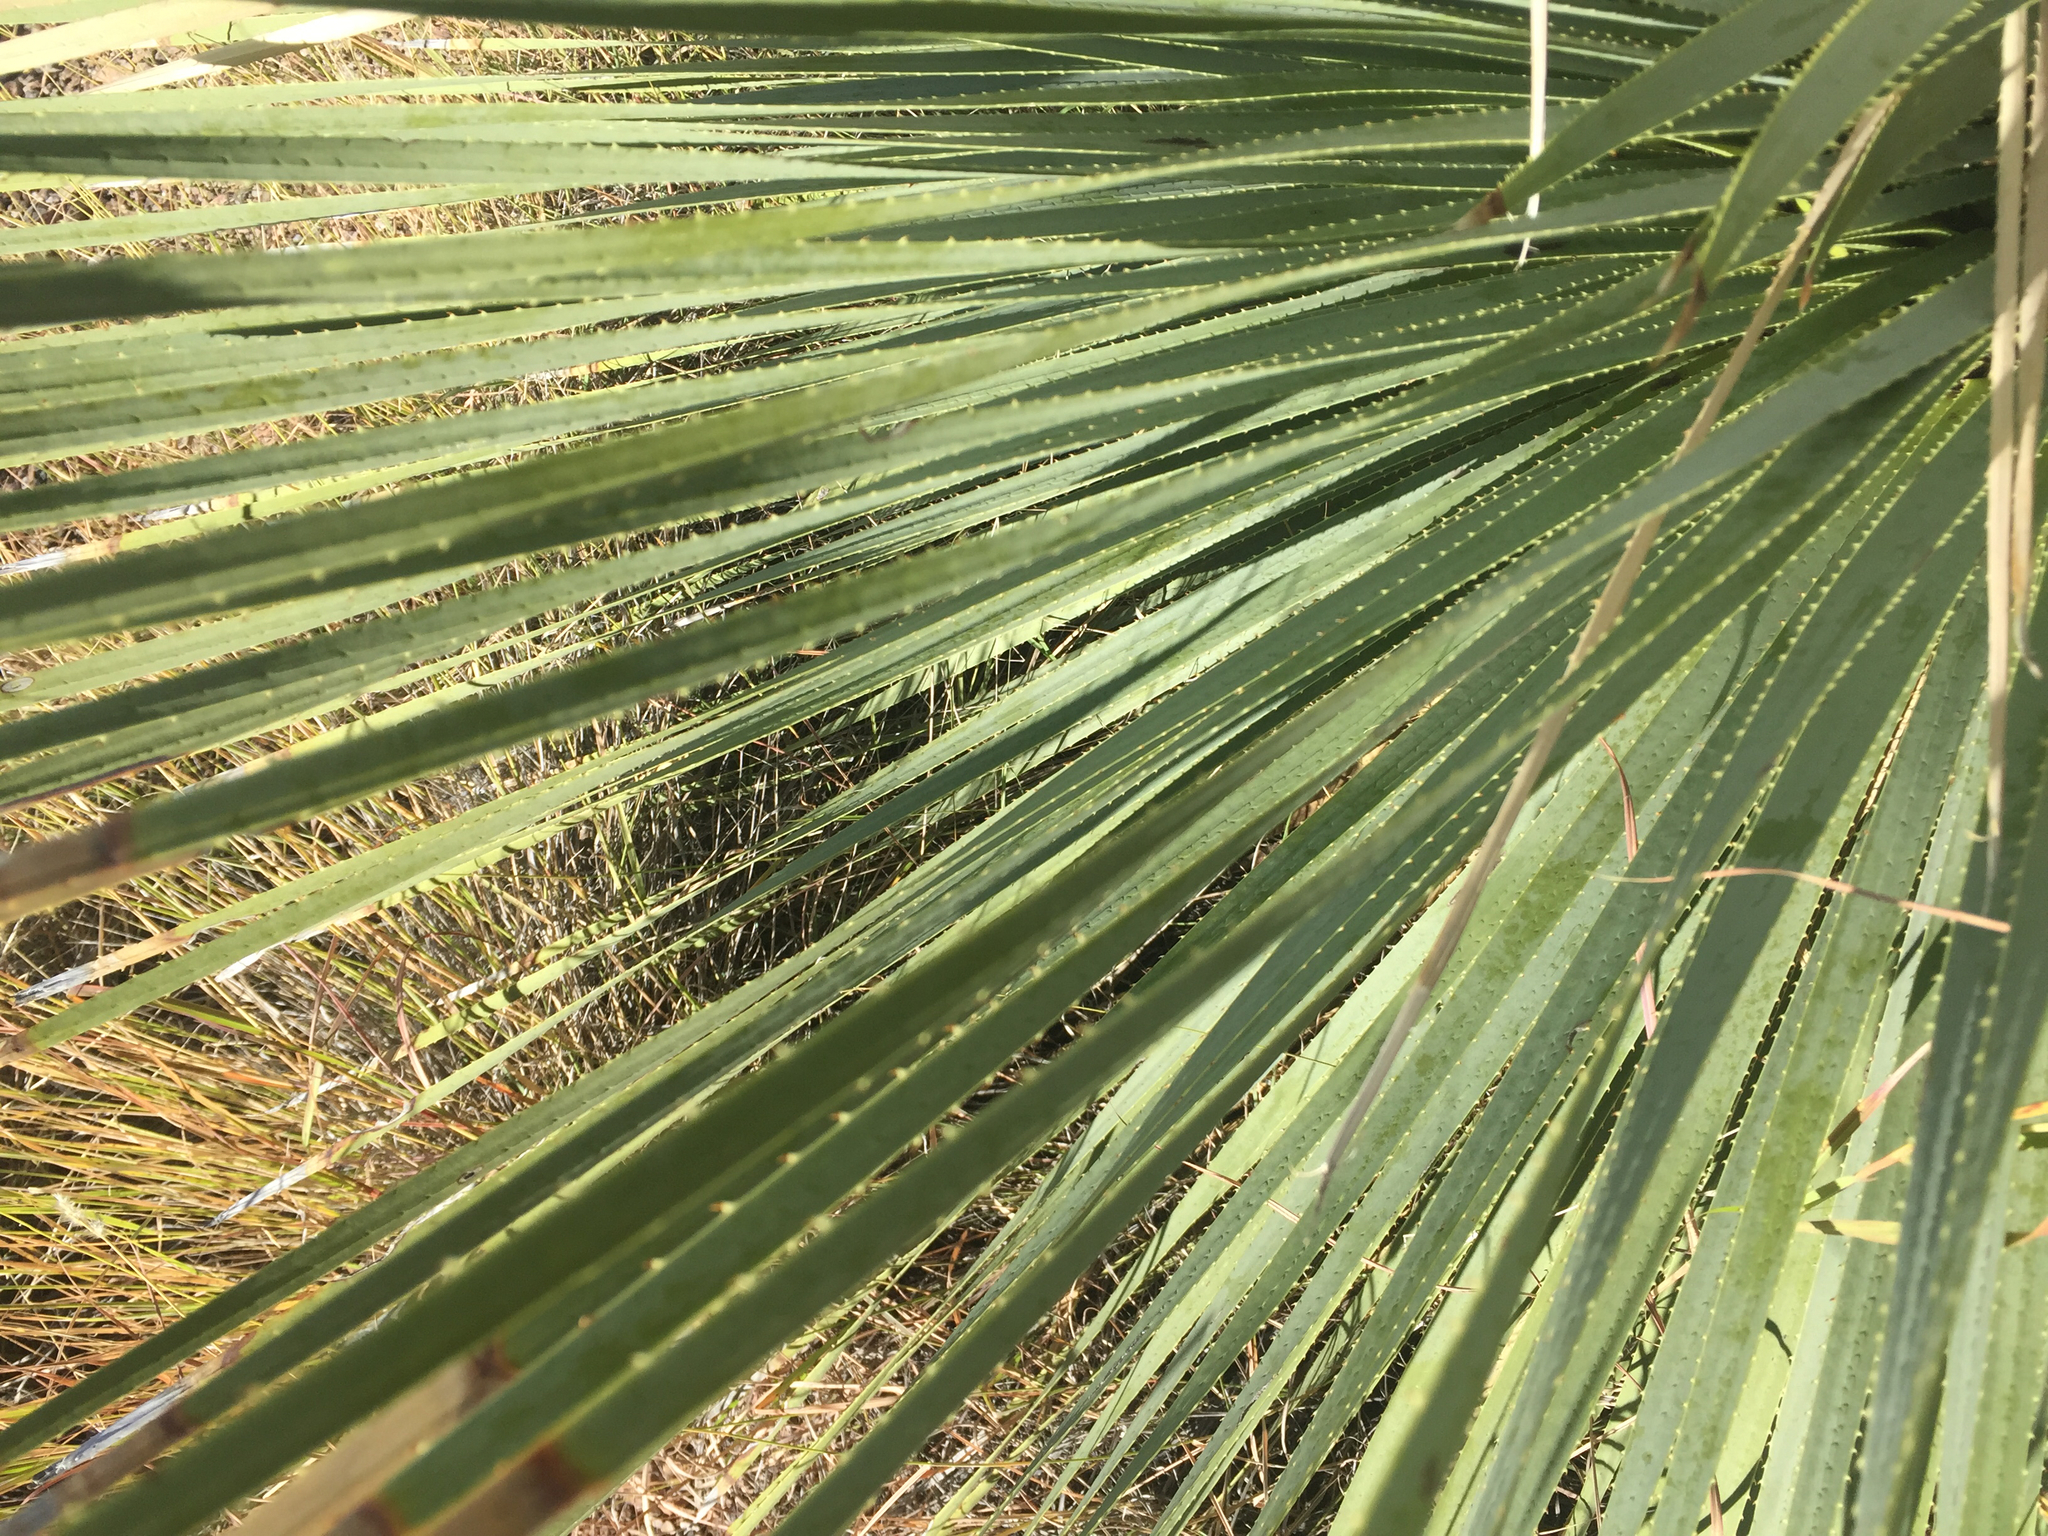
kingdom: Plantae
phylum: Tracheophyta
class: Liliopsida
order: Asparagales
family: Asparagaceae
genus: Dasylirion
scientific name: Dasylirion wheeleri
